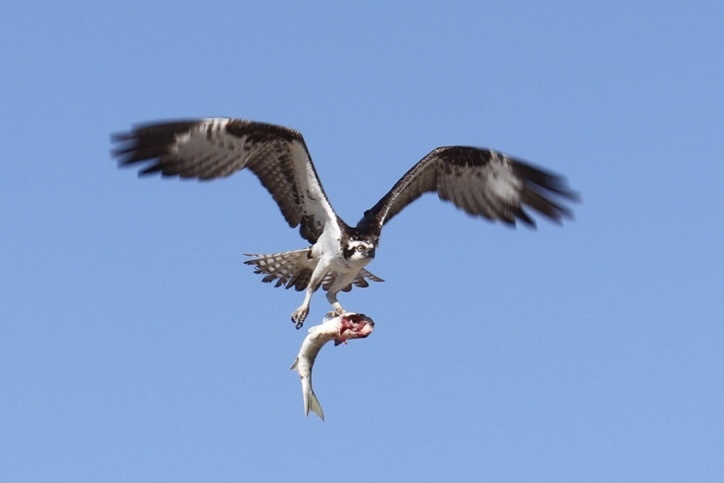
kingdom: Animalia
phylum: Chordata
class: Aves
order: Accipitriformes
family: Pandionidae
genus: Pandion
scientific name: Pandion haliaetus
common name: Osprey
